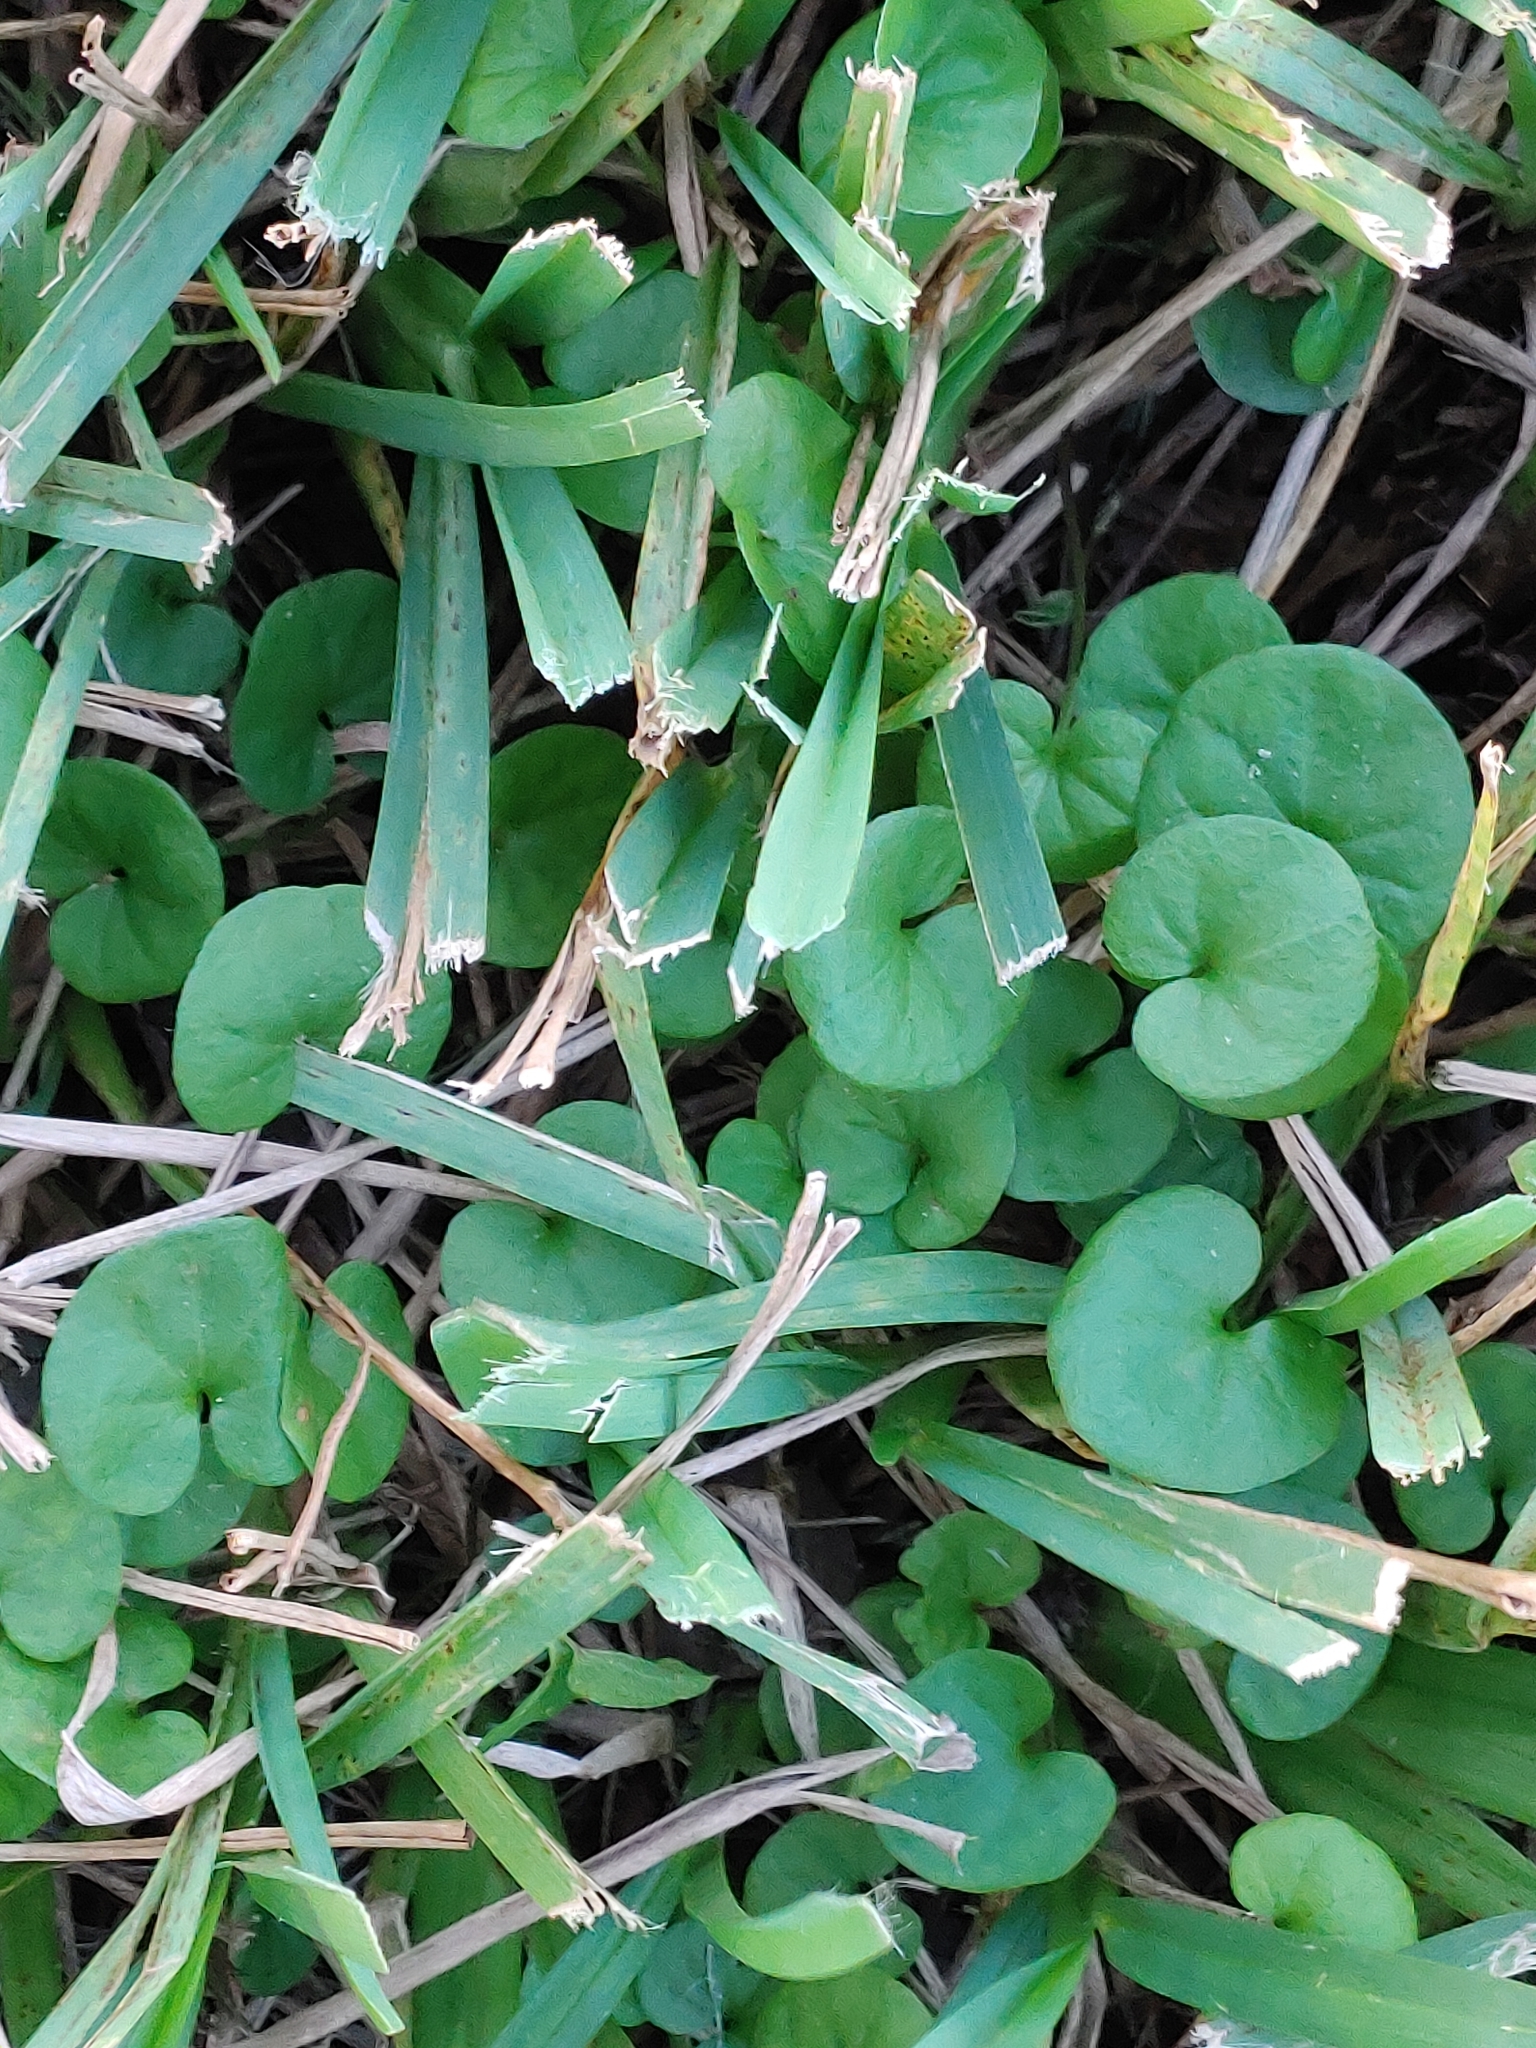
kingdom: Plantae
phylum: Tracheophyta
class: Magnoliopsida
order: Solanales
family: Convolvulaceae
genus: Dichondra
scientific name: Dichondra carolinensis
